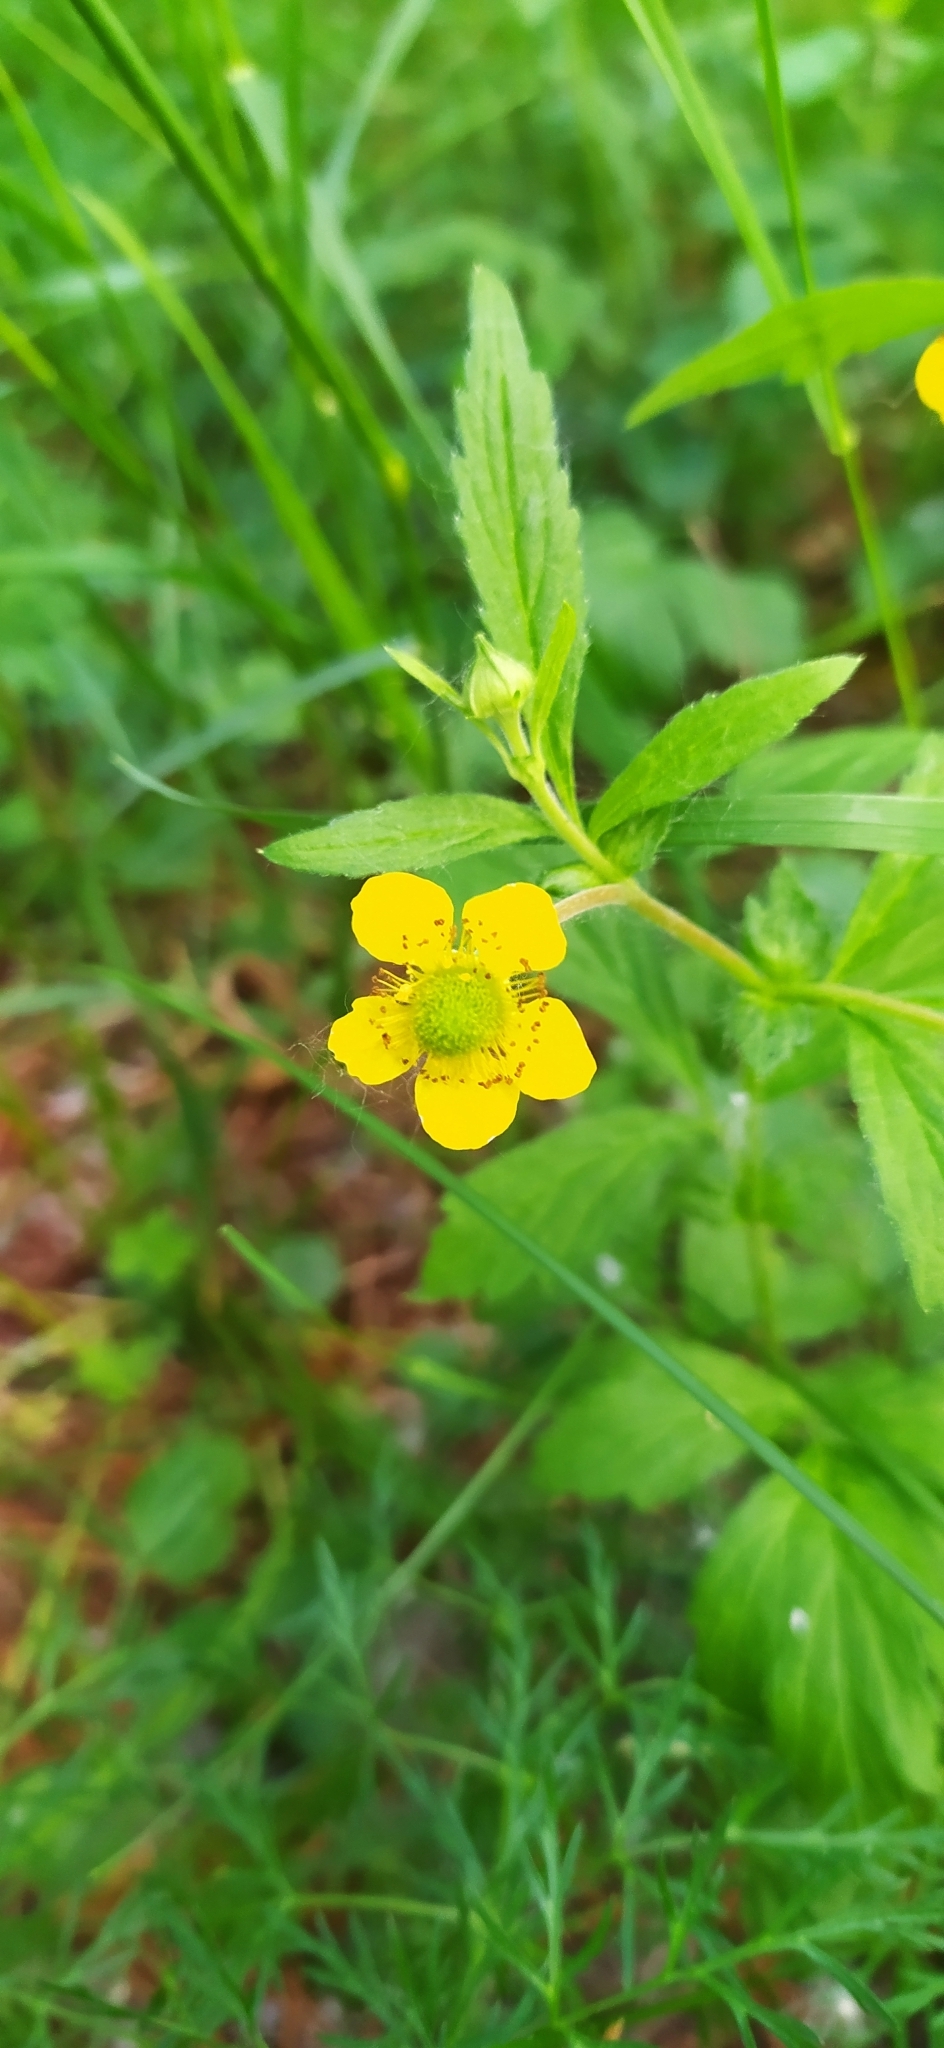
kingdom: Plantae
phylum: Tracheophyta
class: Magnoliopsida
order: Rosales
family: Rosaceae
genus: Geum
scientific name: Geum aleppicum
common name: Yellow avens
